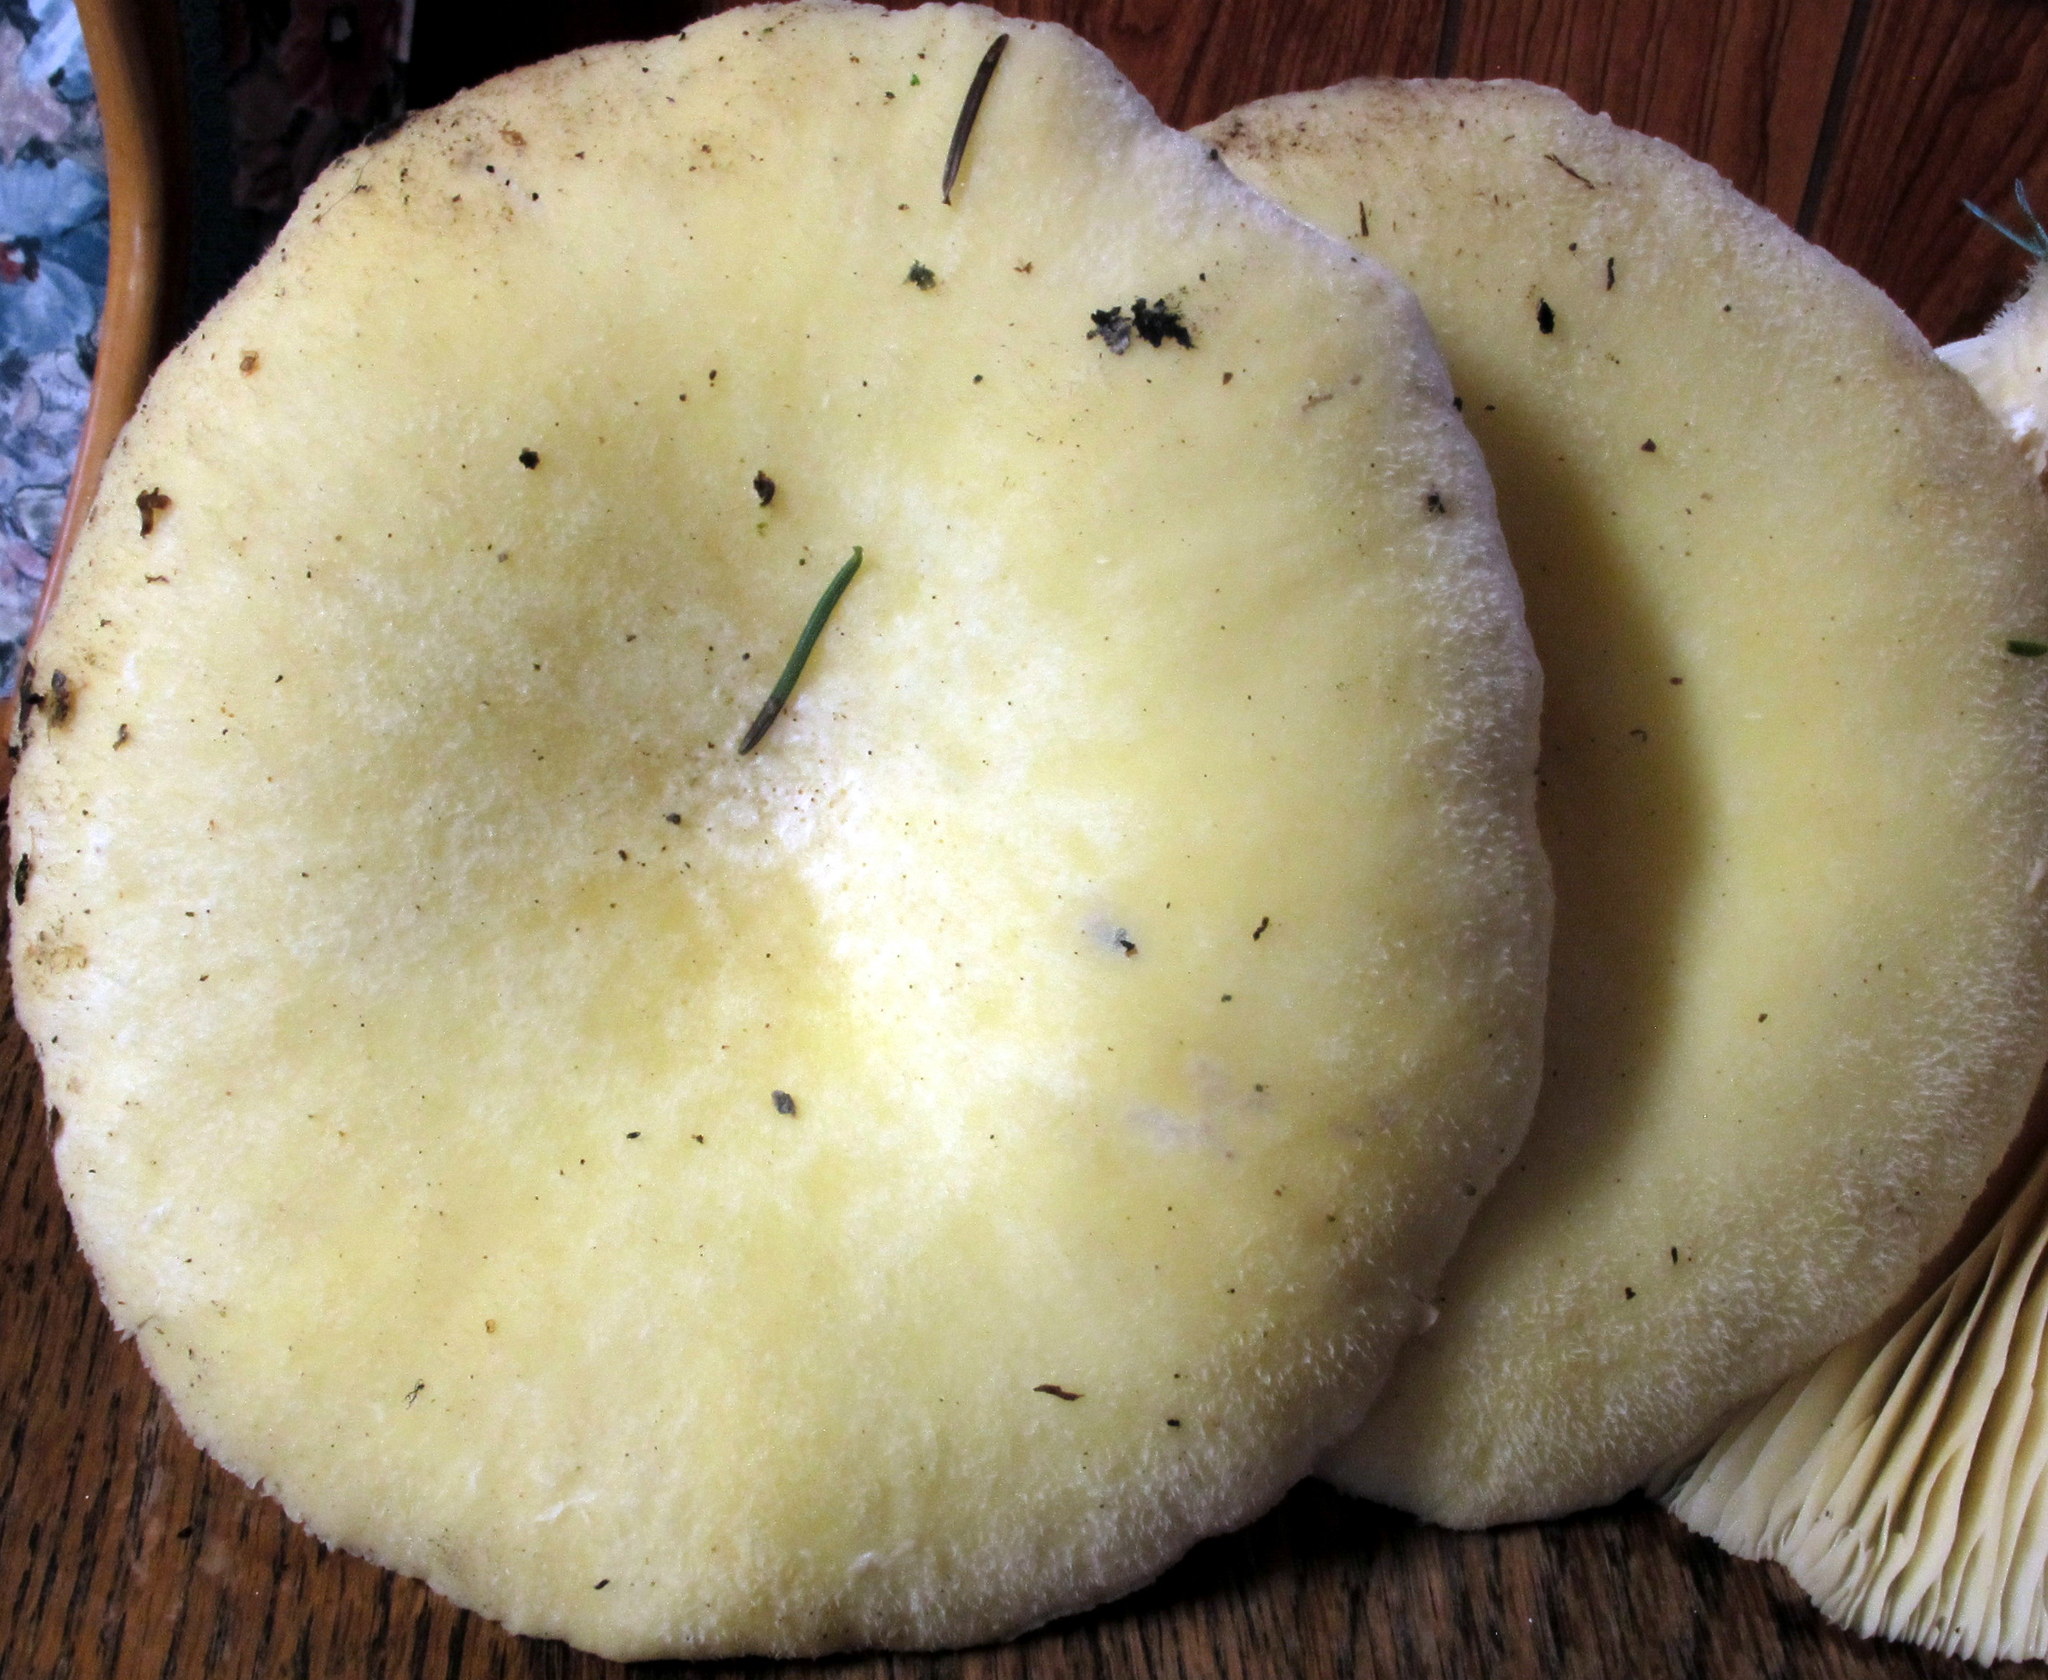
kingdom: Fungi
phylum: Basidiomycota
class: Agaricomycetes
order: Polyporales
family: Polyporaceae
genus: Lentinus
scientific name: Lentinus levis
